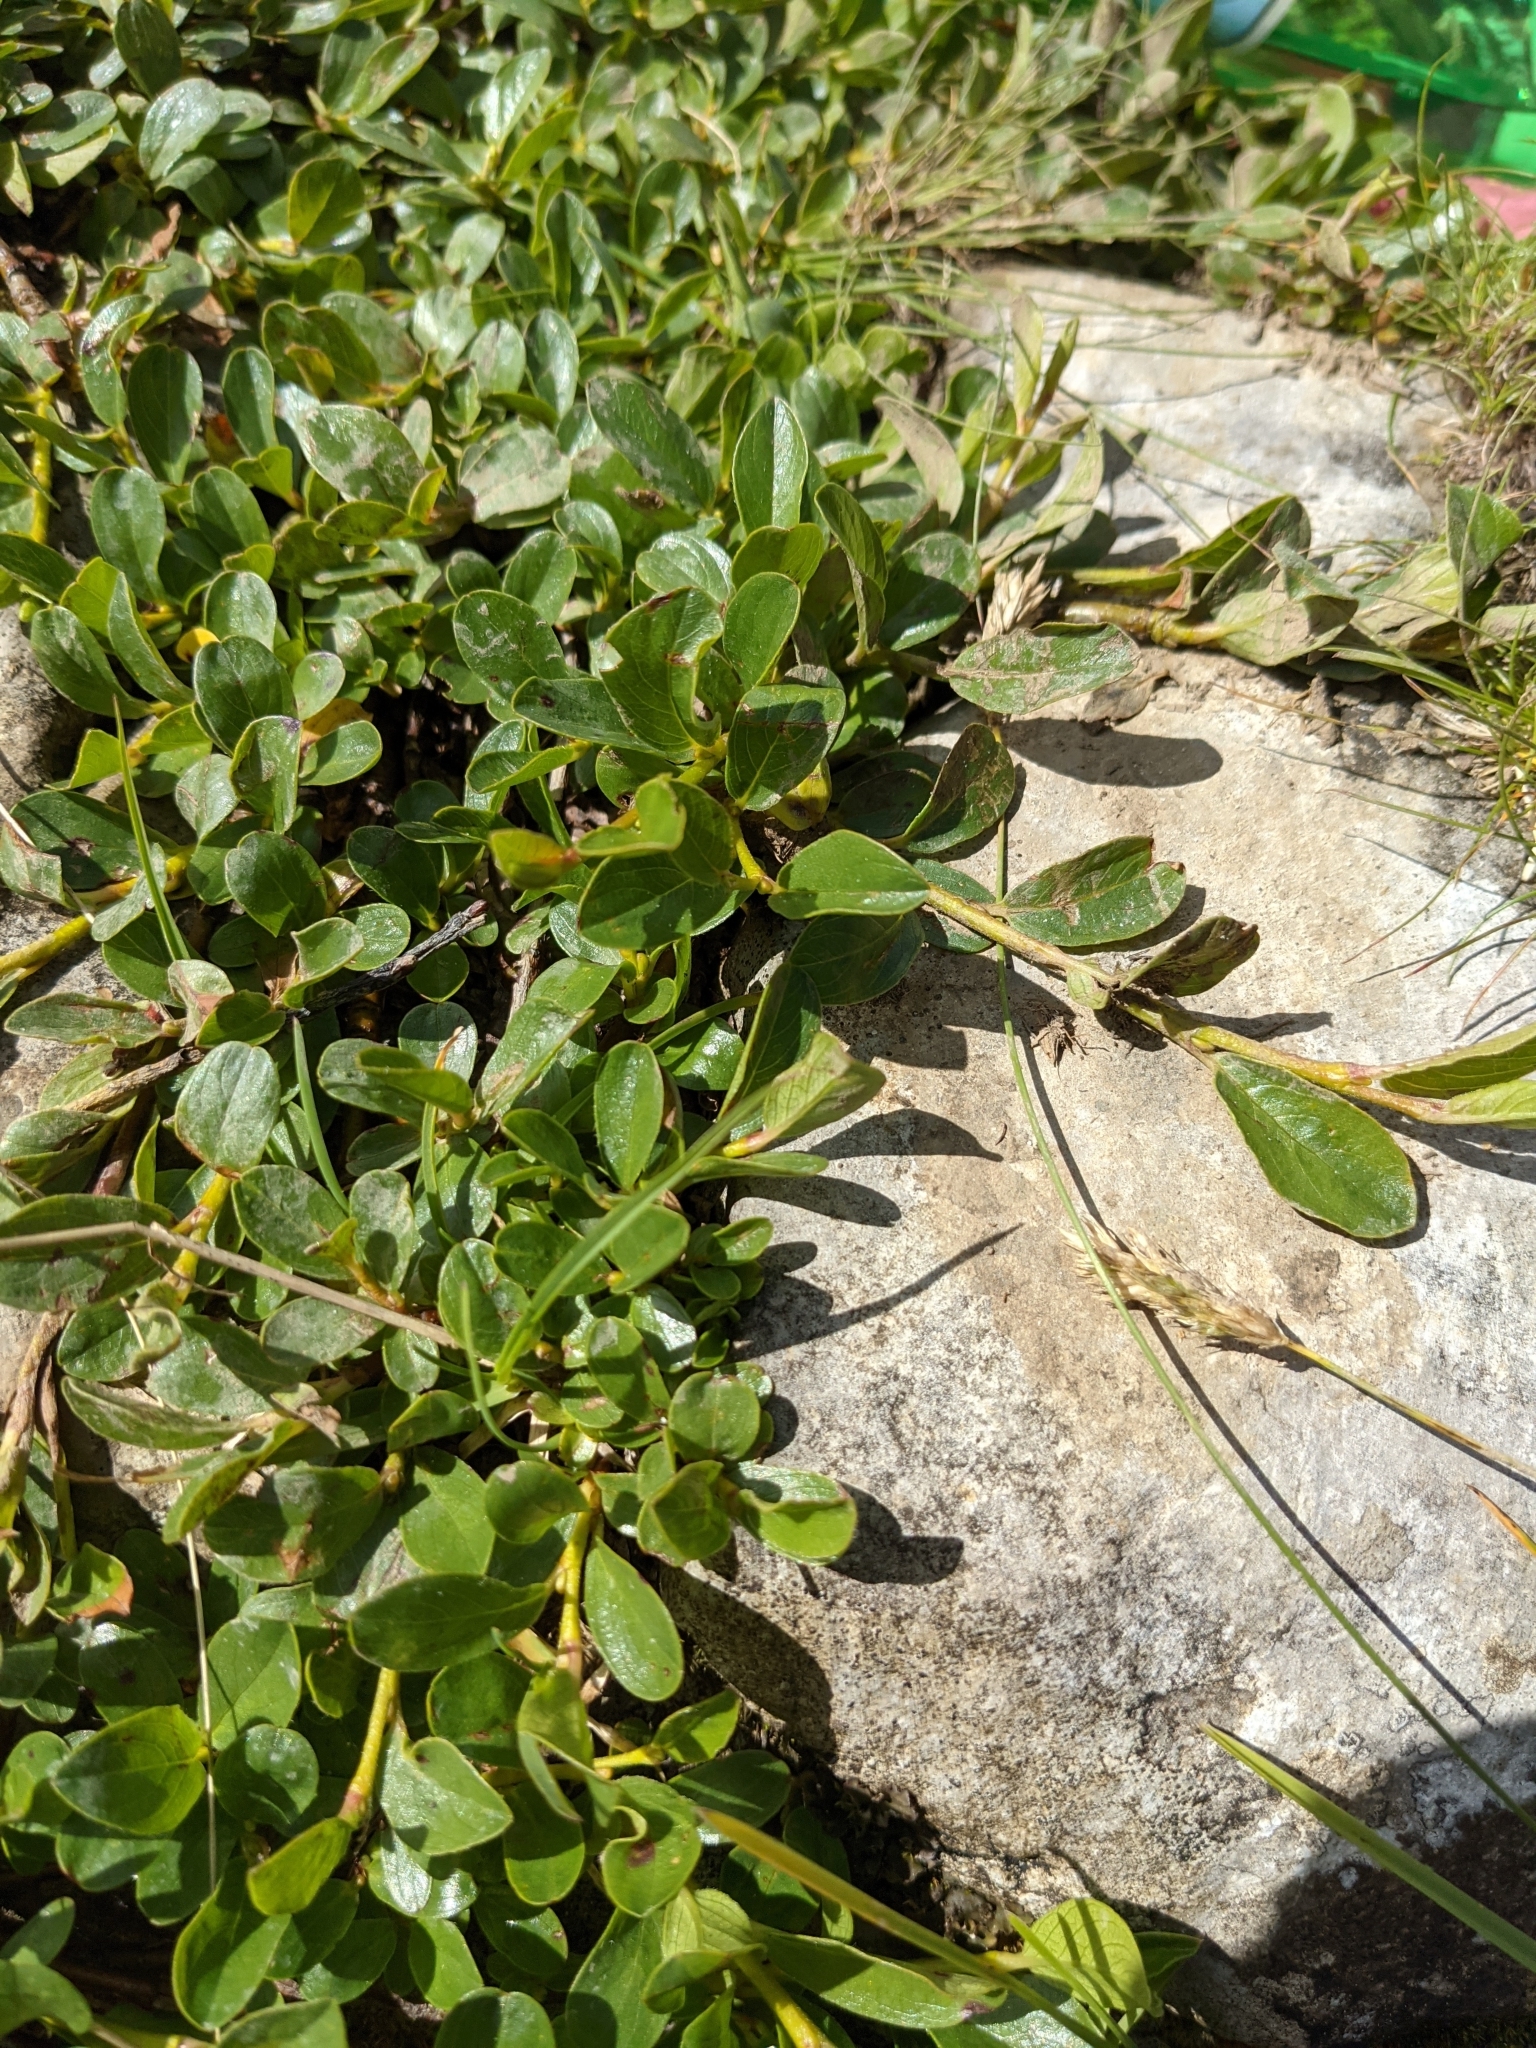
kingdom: Plantae
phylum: Tracheophyta
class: Magnoliopsida
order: Malpighiales
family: Salicaceae
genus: Salix
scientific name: Salix retusa
